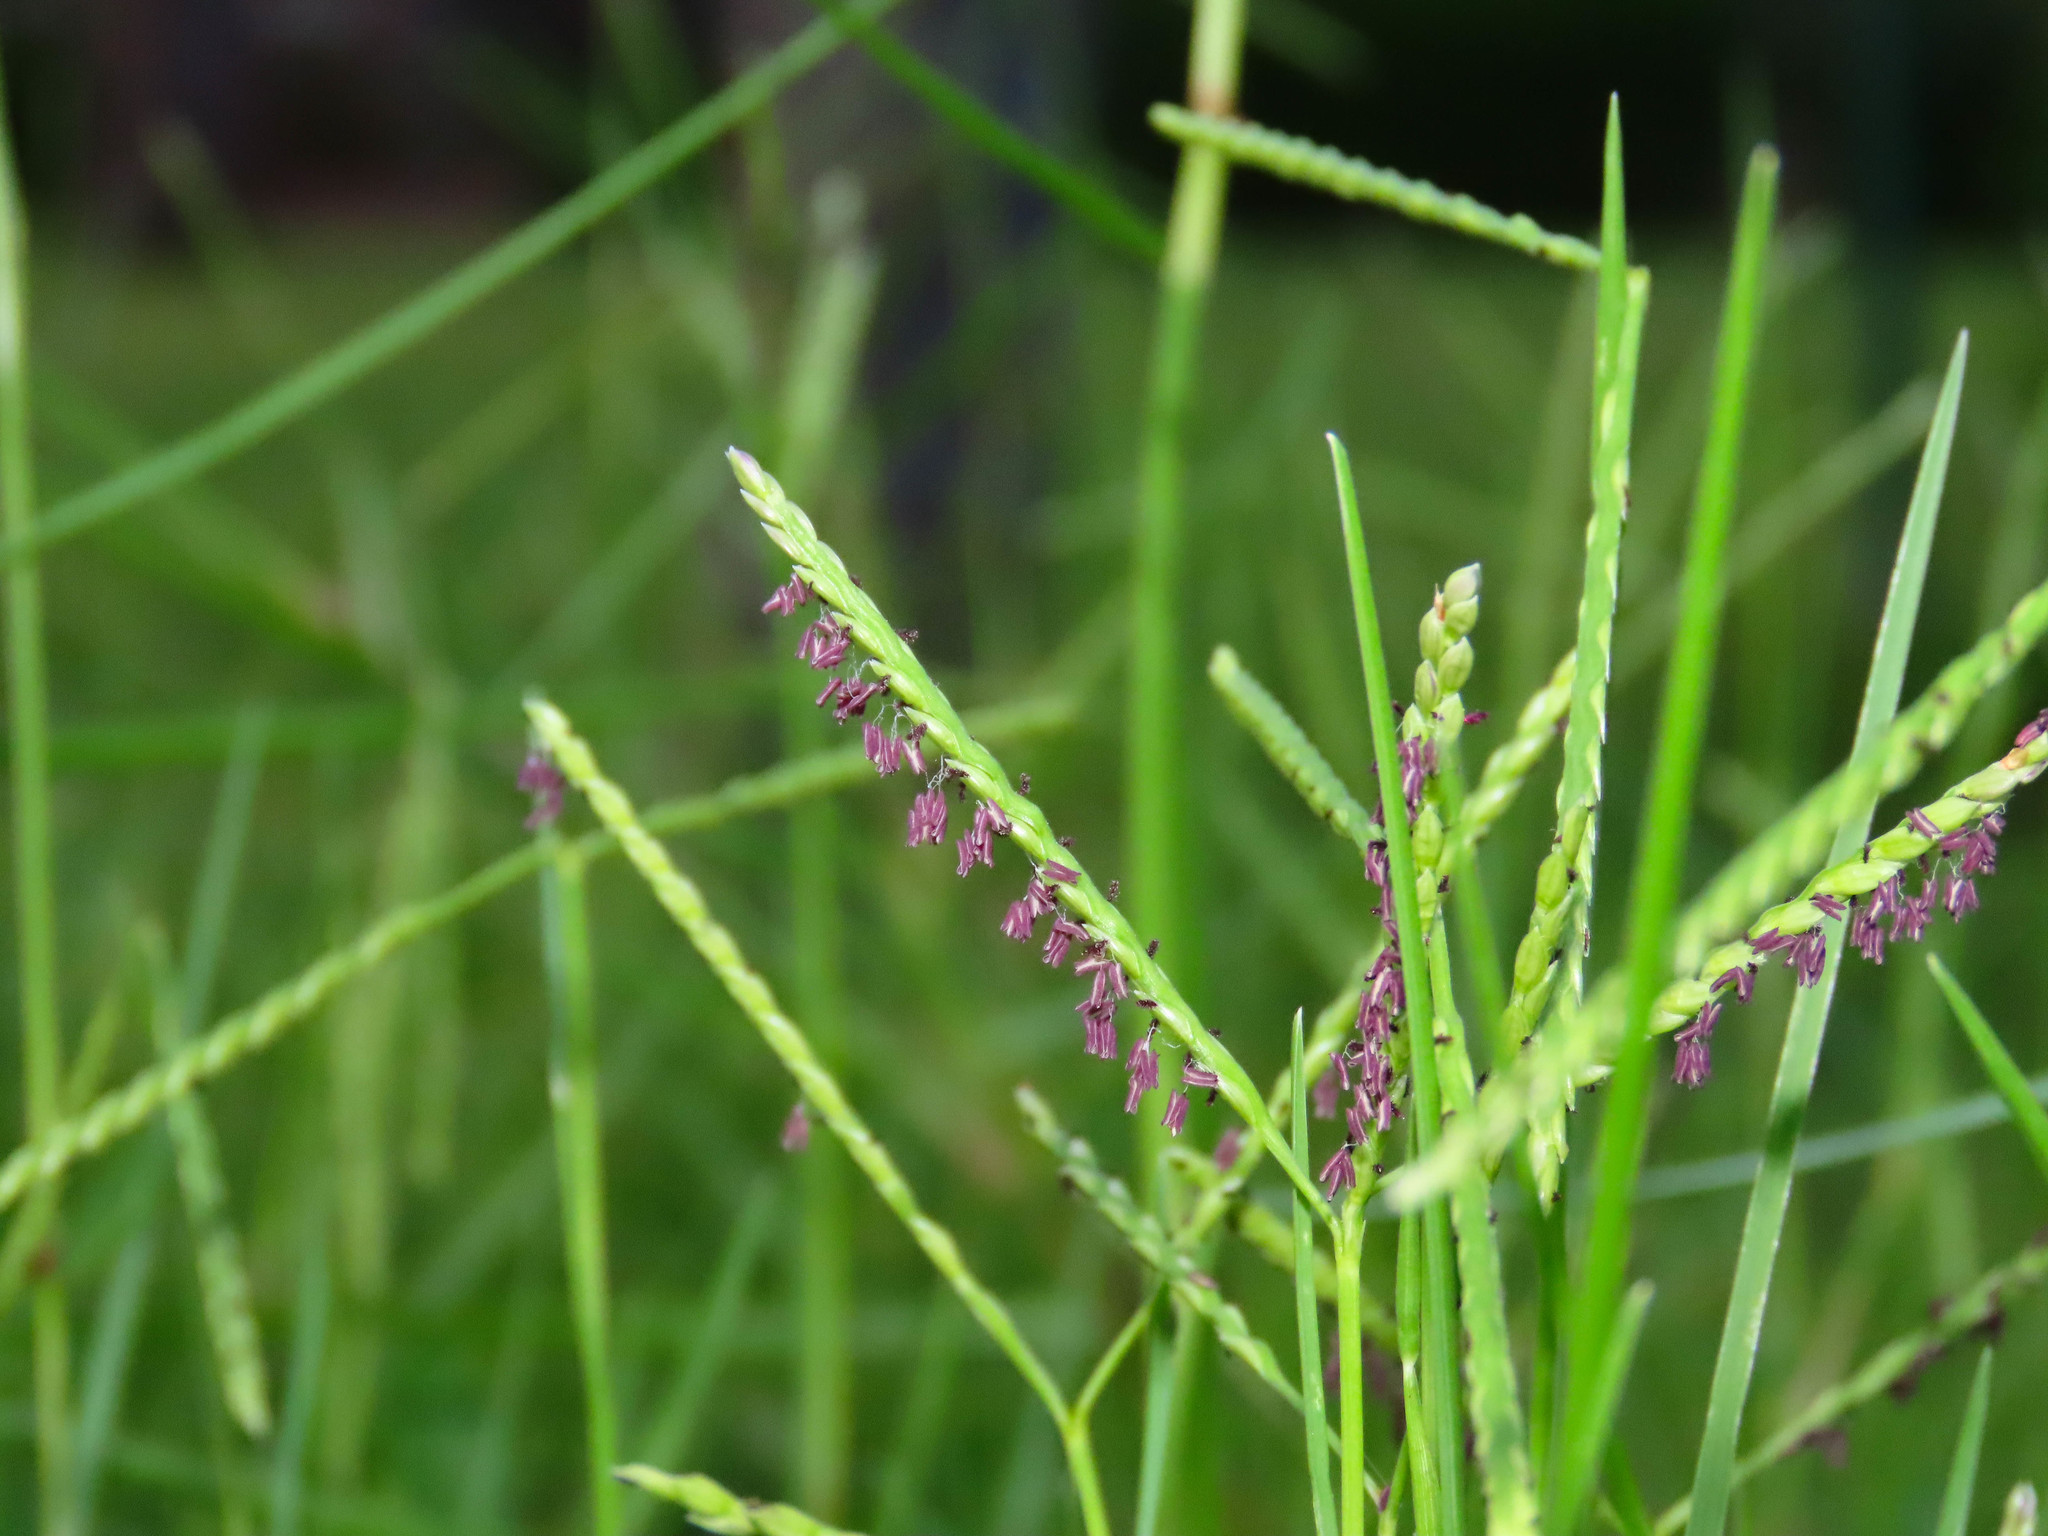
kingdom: Plantae
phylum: Tracheophyta
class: Liliopsida
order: Poales
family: Poaceae
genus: Cynodon
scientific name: Cynodon dactylon
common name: Bermuda grass
